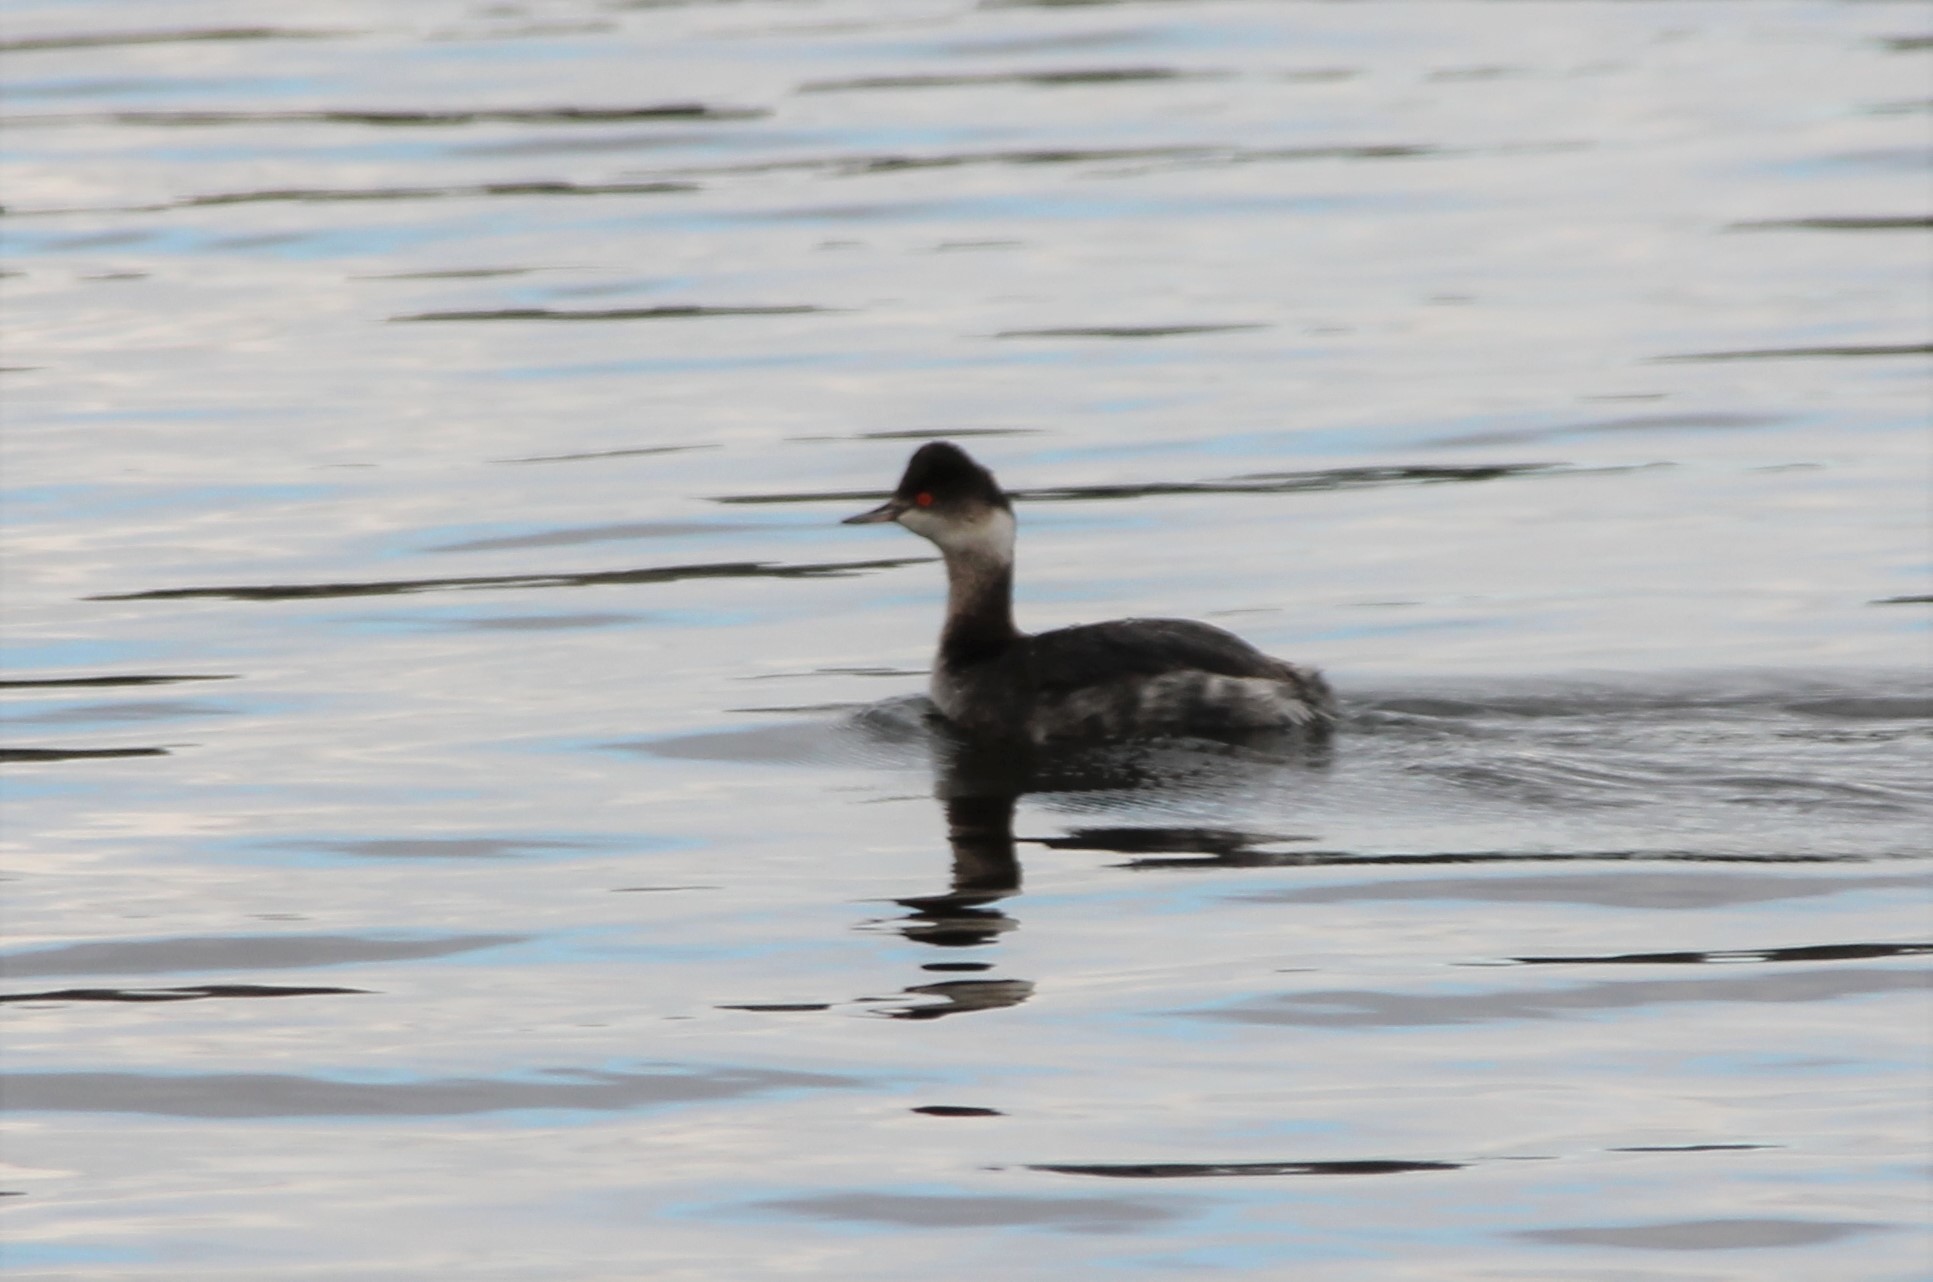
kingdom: Animalia
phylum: Chordata
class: Aves
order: Podicipediformes
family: Podicipedidae
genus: Podiceps
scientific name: Podiceps nigricollis
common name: Black-necked grebe
